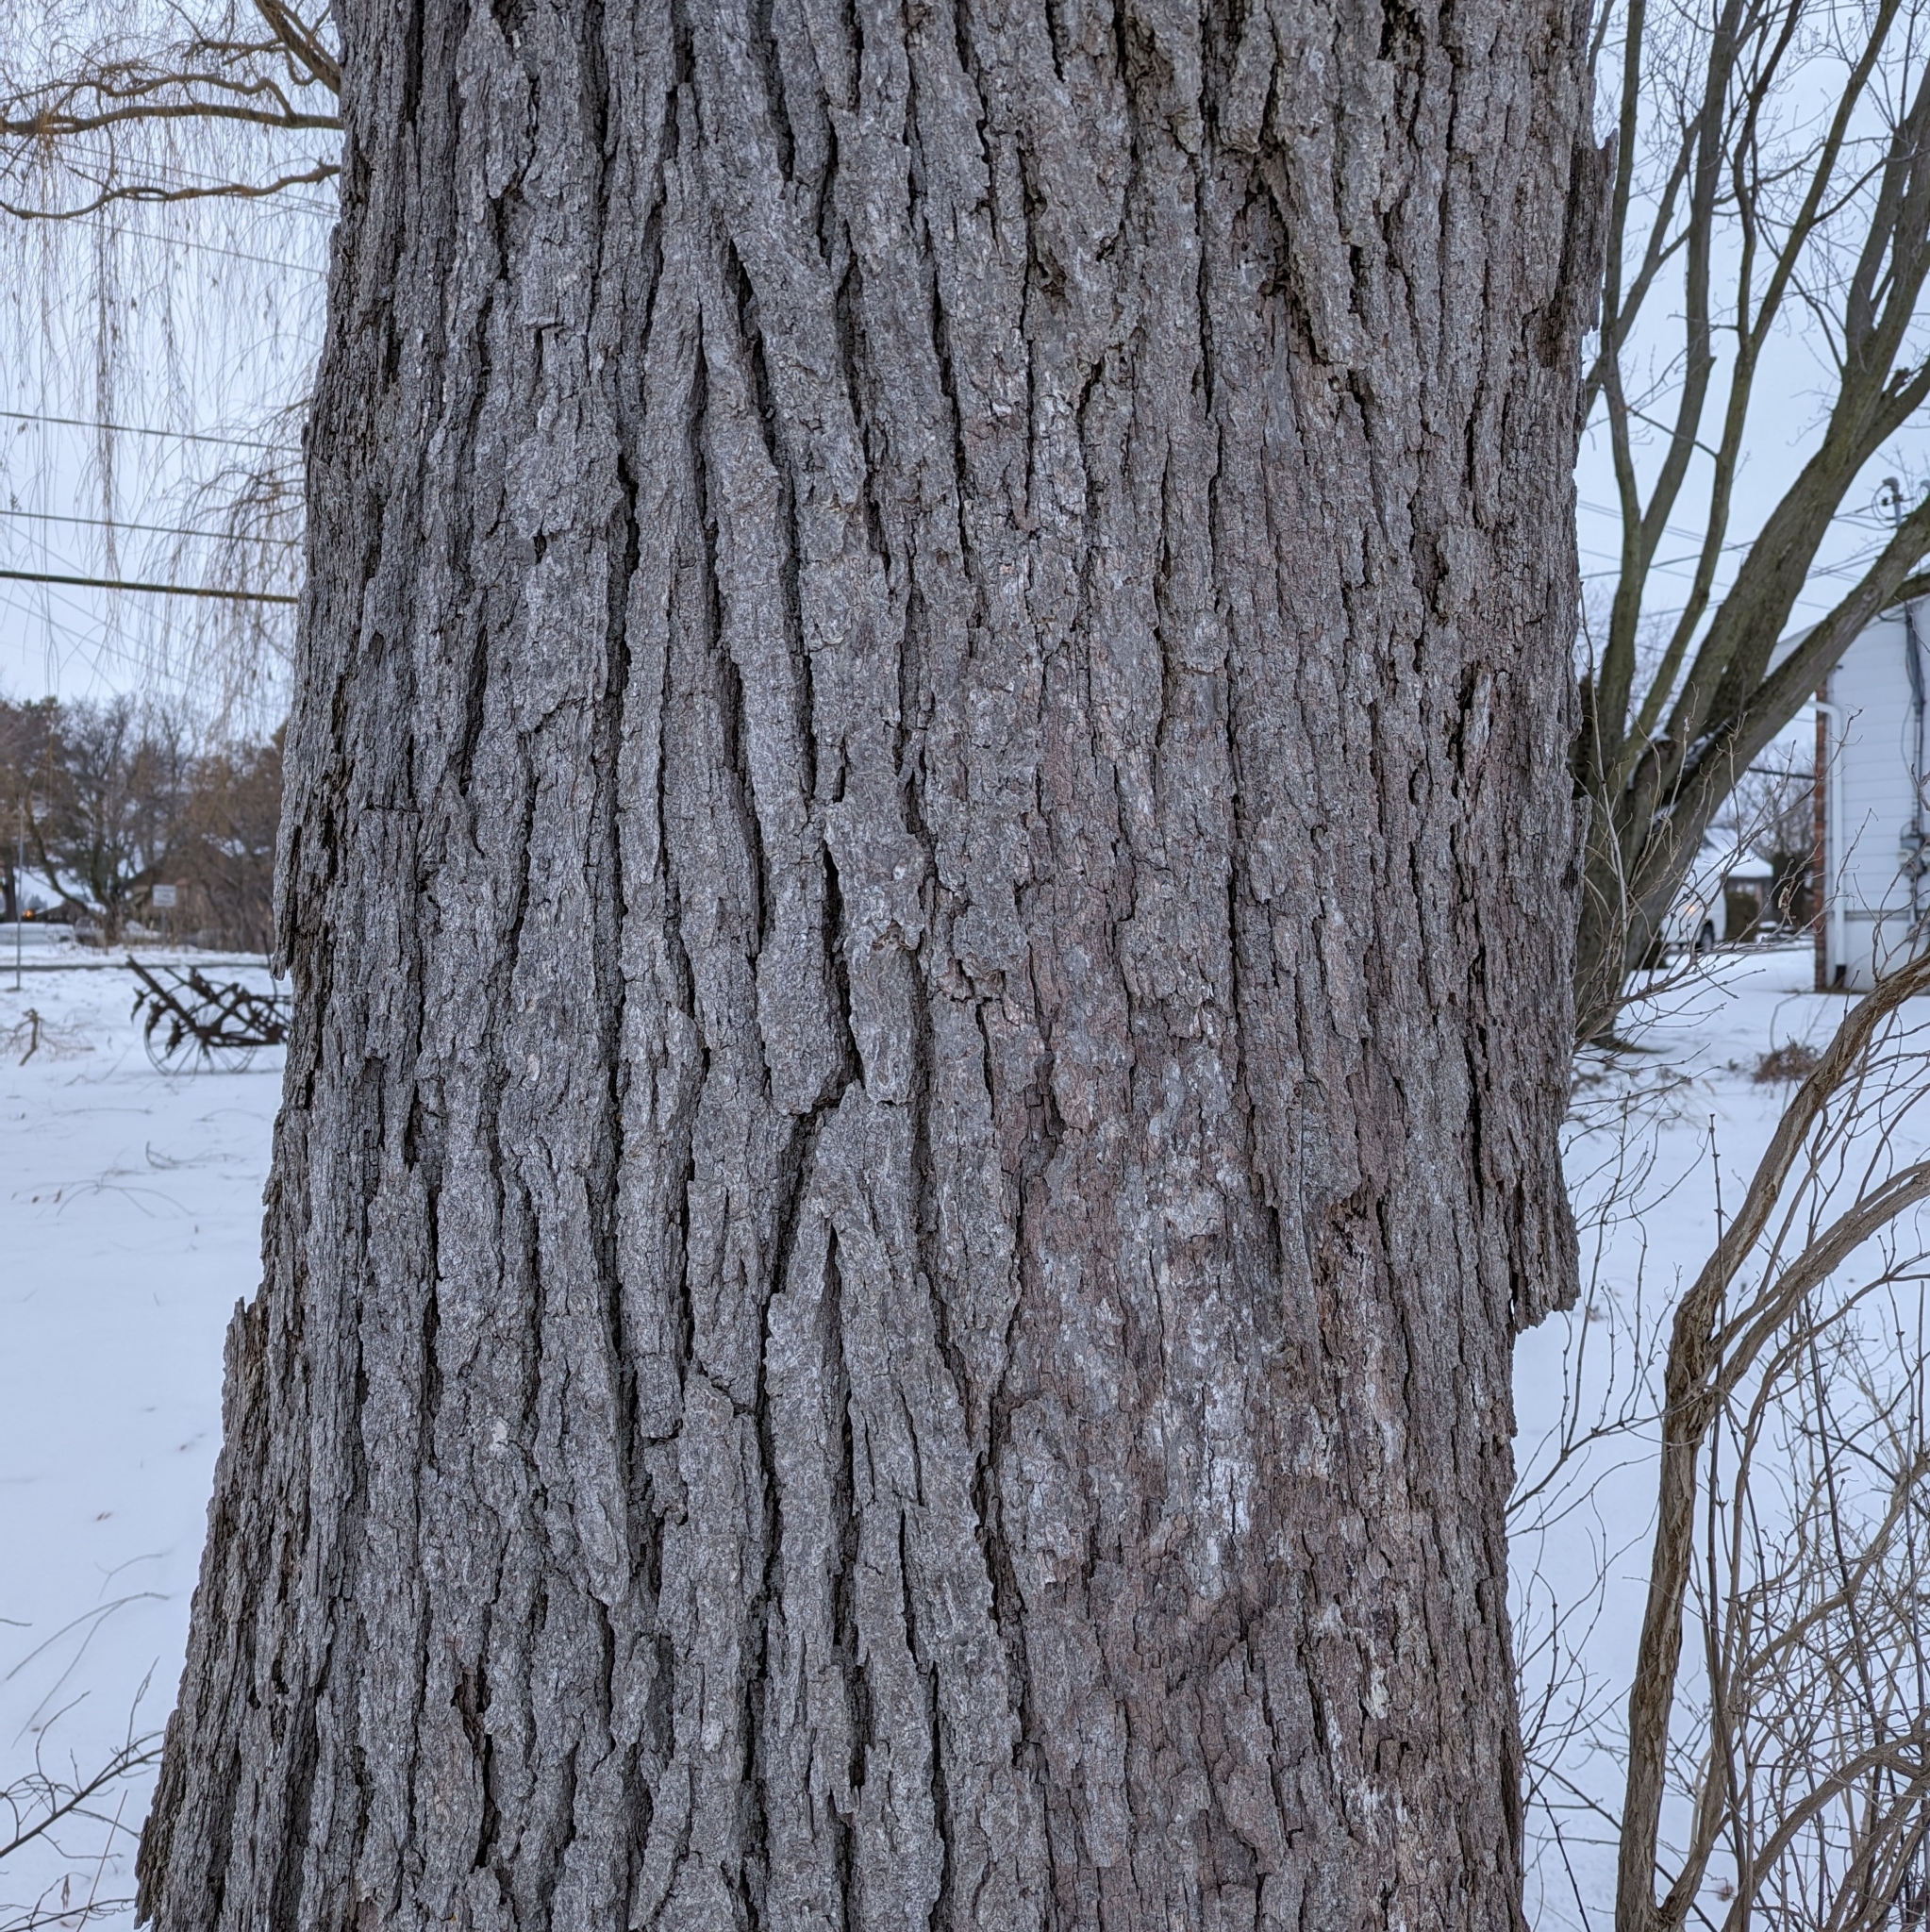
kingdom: Plantae
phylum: Tracheophyta
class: Magnoliopsida
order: Fagales
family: Fagaceae
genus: Quercus
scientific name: Quercus macrocarpa
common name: Bur oak
